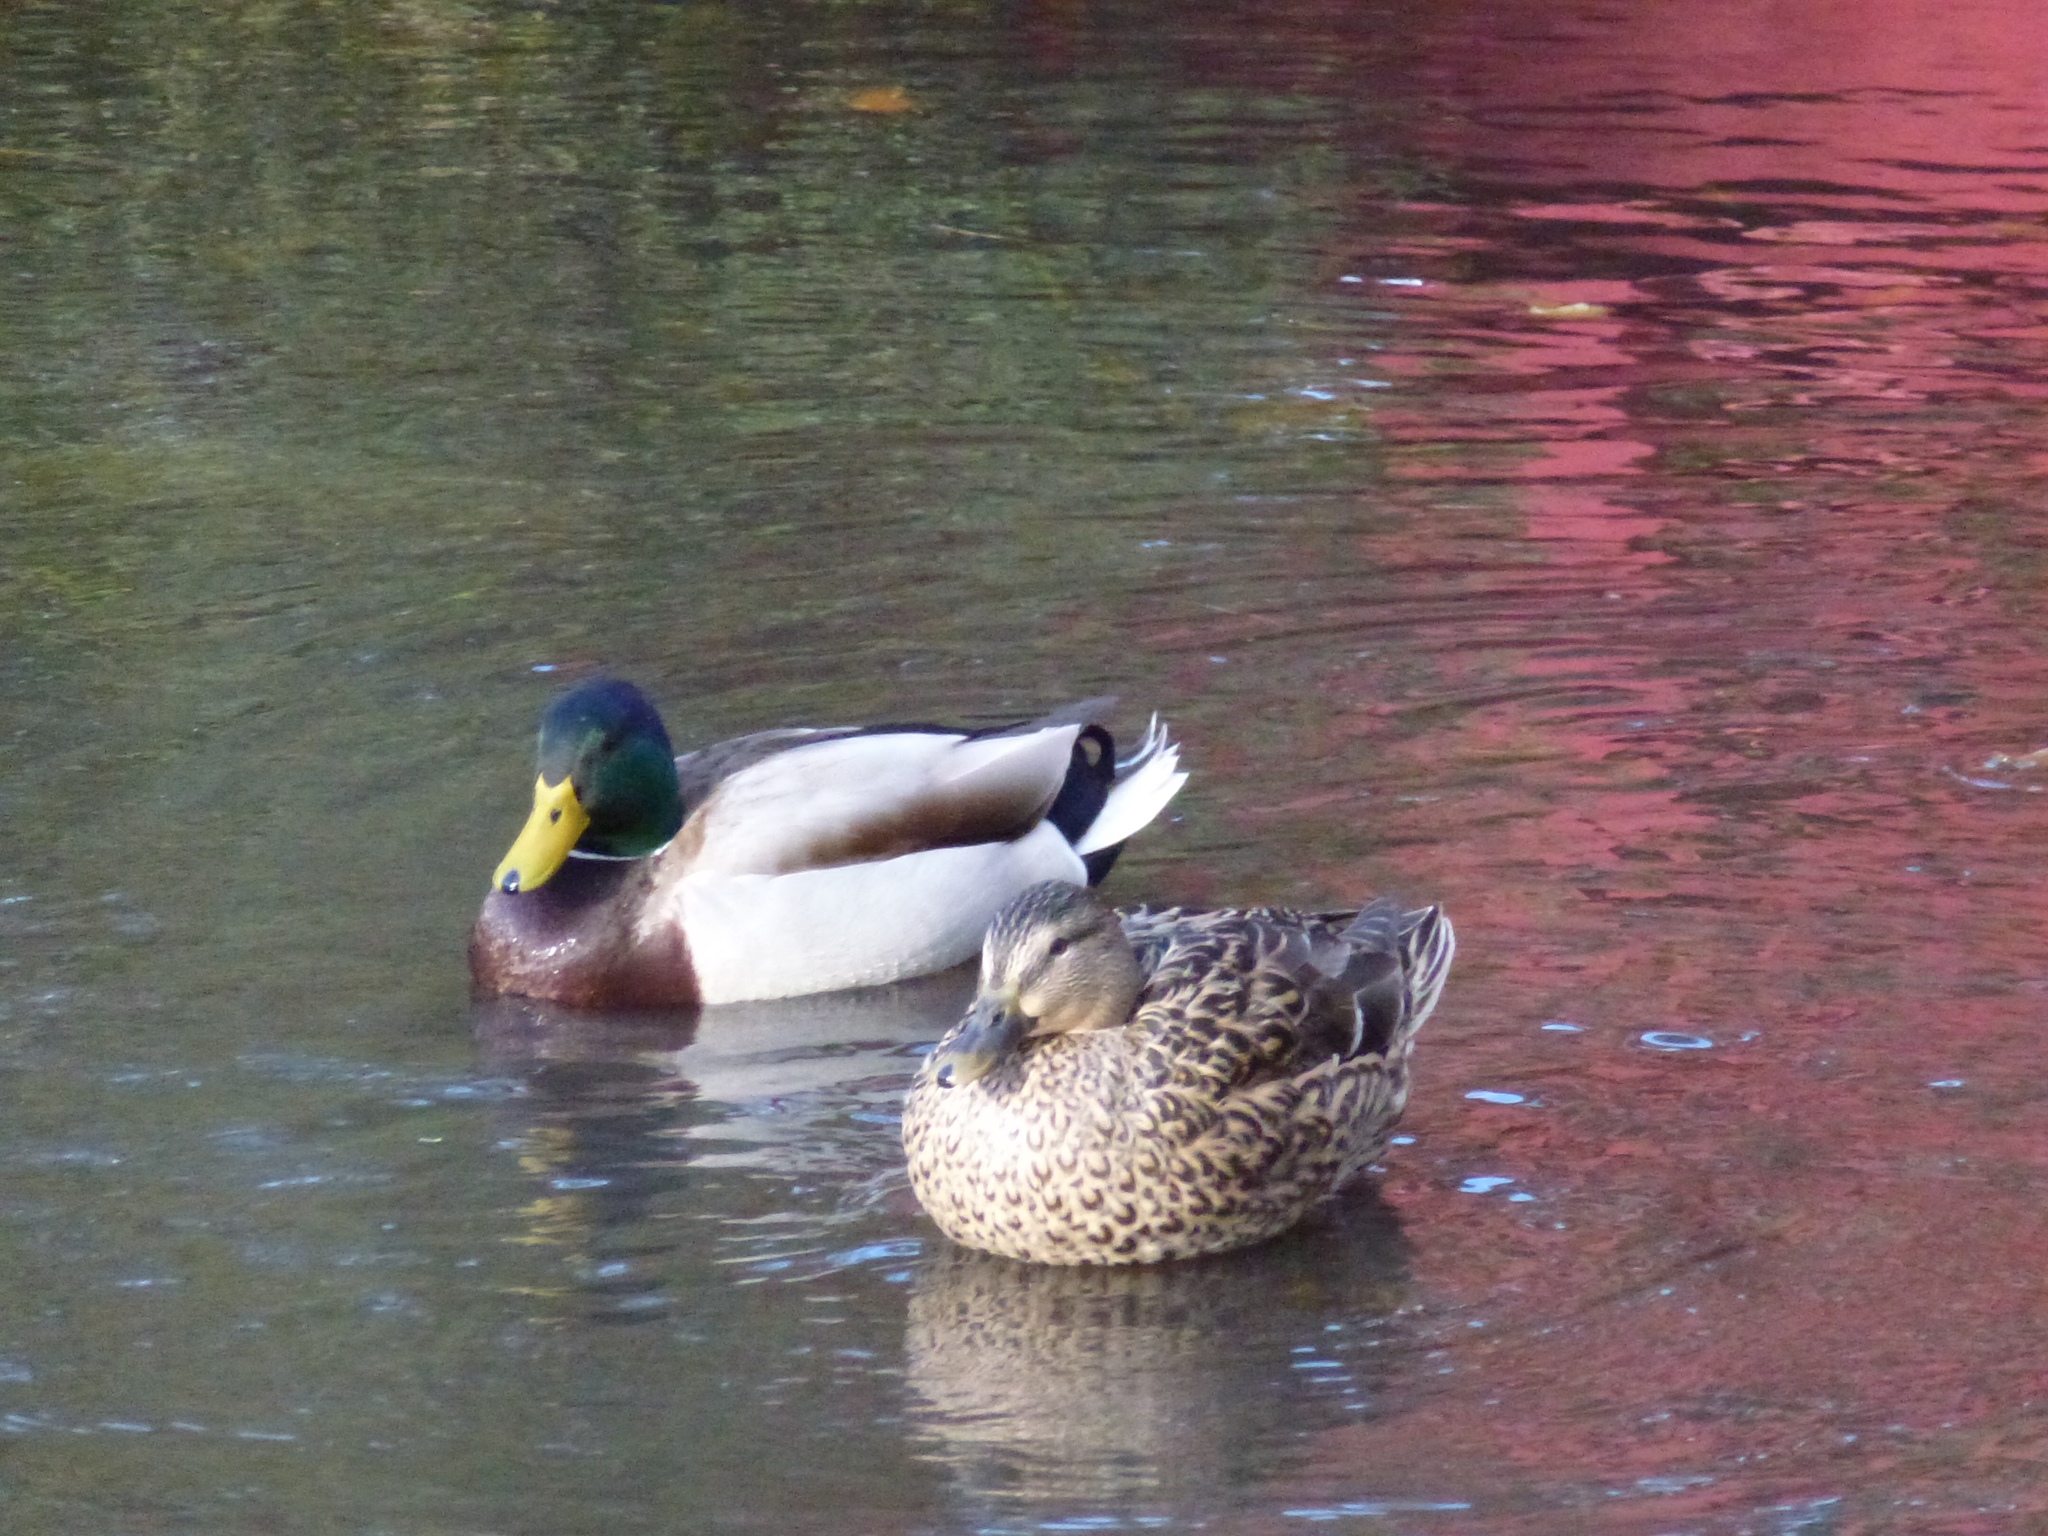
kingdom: Animalia
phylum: Chordata
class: Aves
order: Anseriformes
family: Anatidae
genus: Anas
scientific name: Anas platyrhynchos
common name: Mallard
